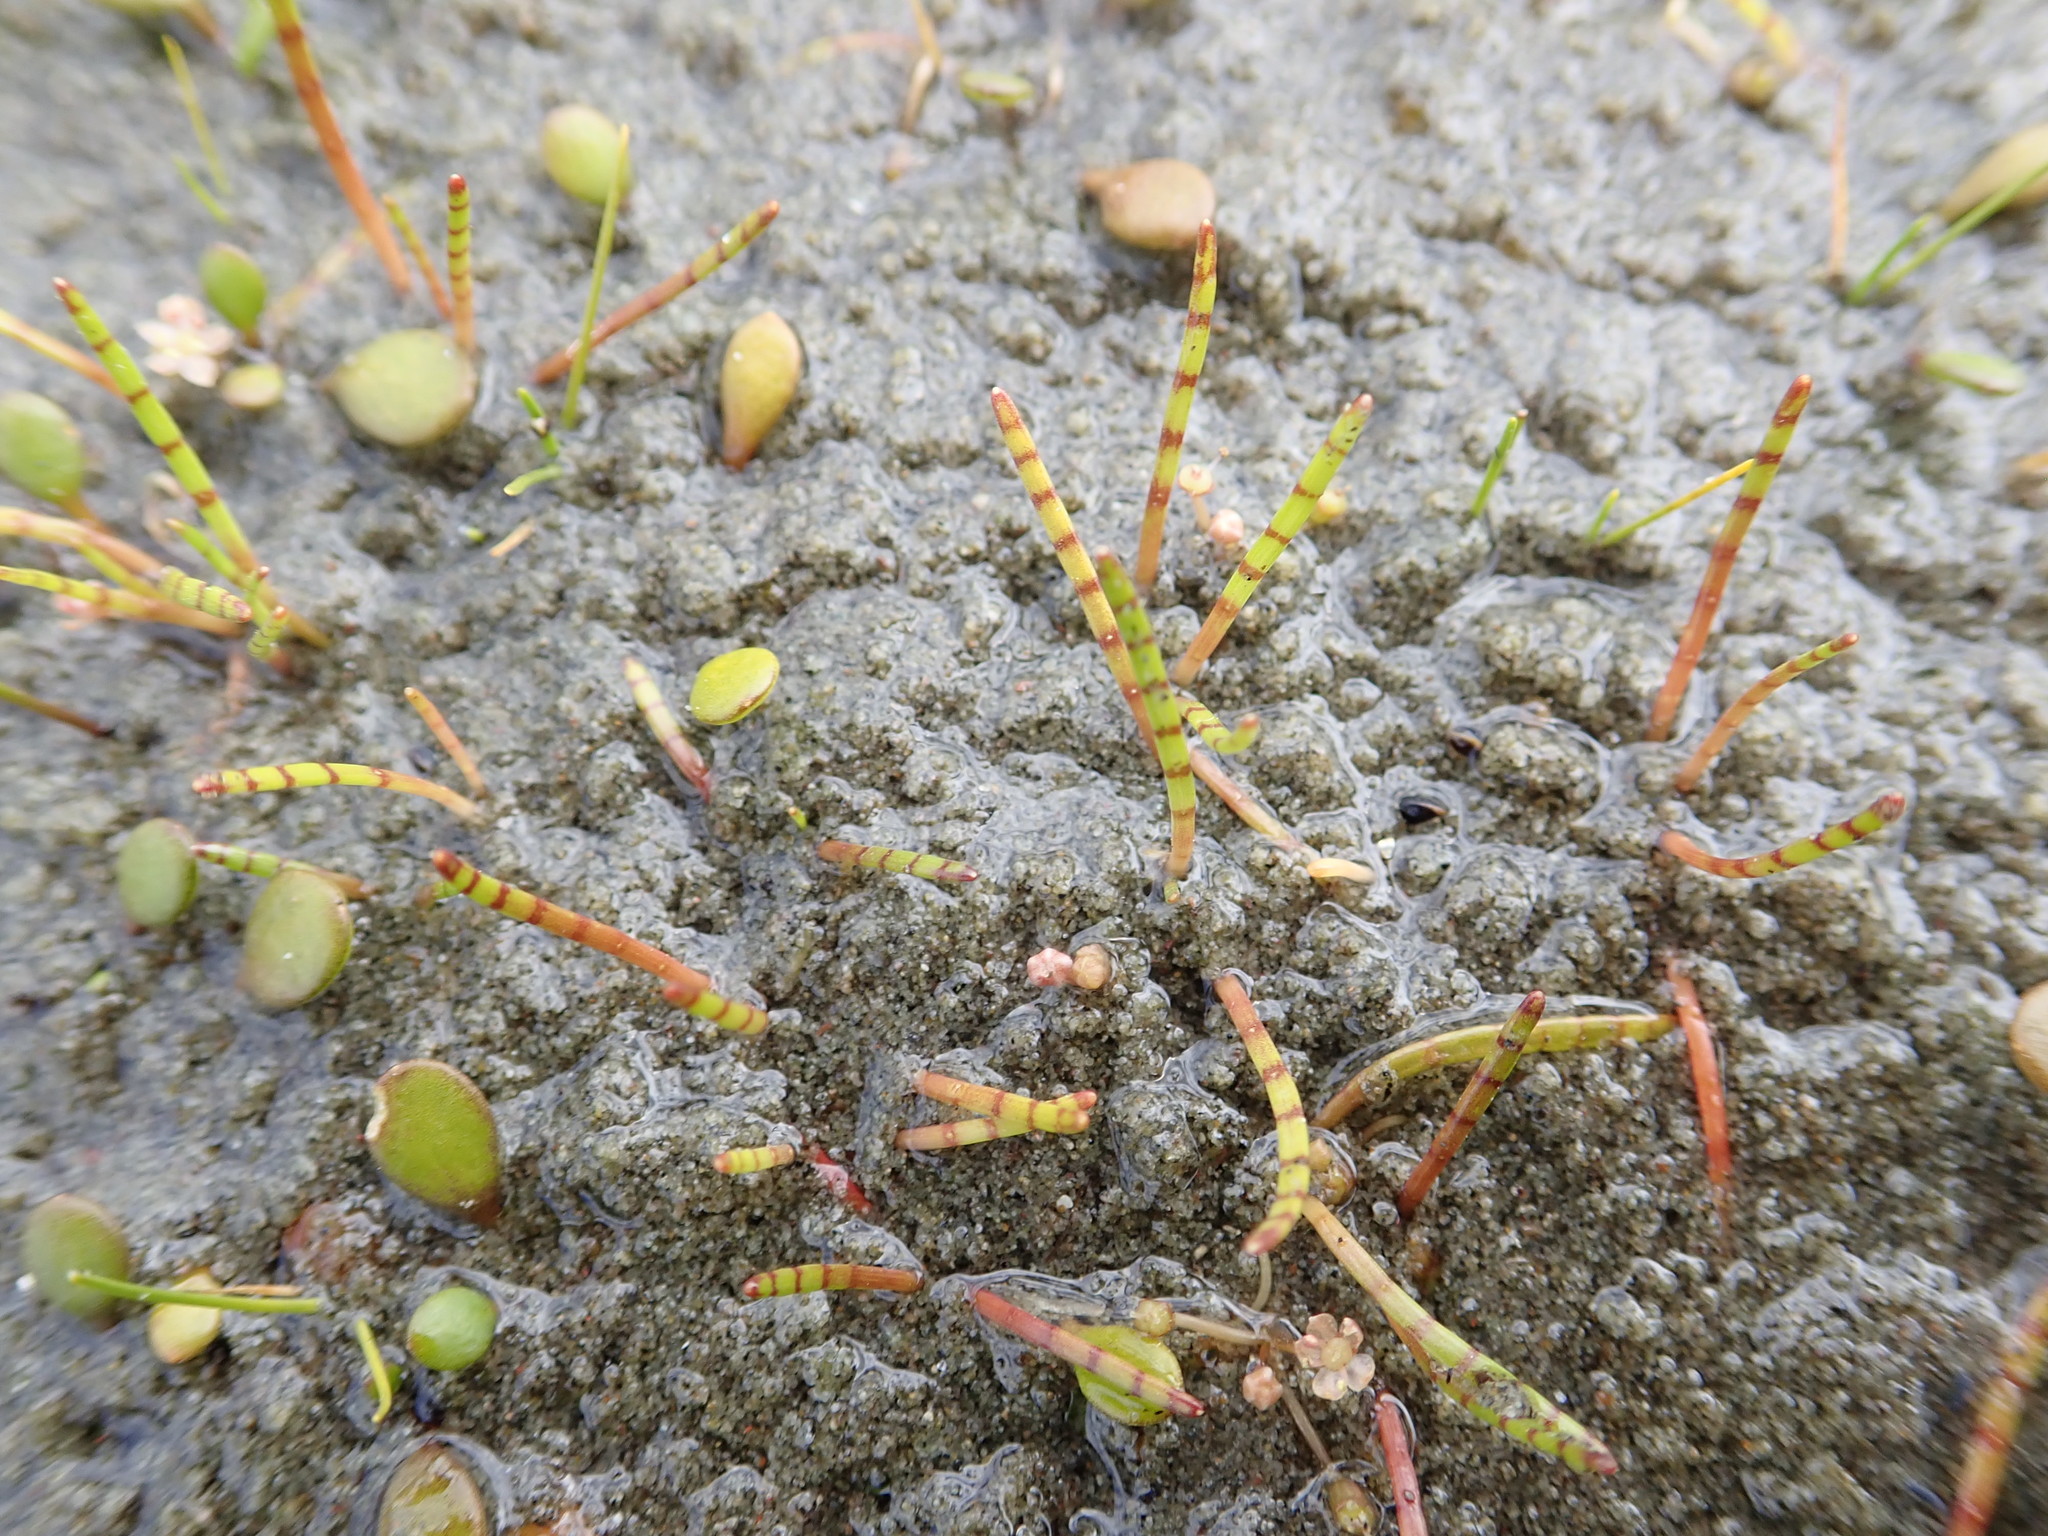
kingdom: Plantae
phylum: Tracheophyta
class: Magnoliopsida
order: Apiales
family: Apiaceae
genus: Lilaeopsis
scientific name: Lilaeopsis novae-zelandiae
